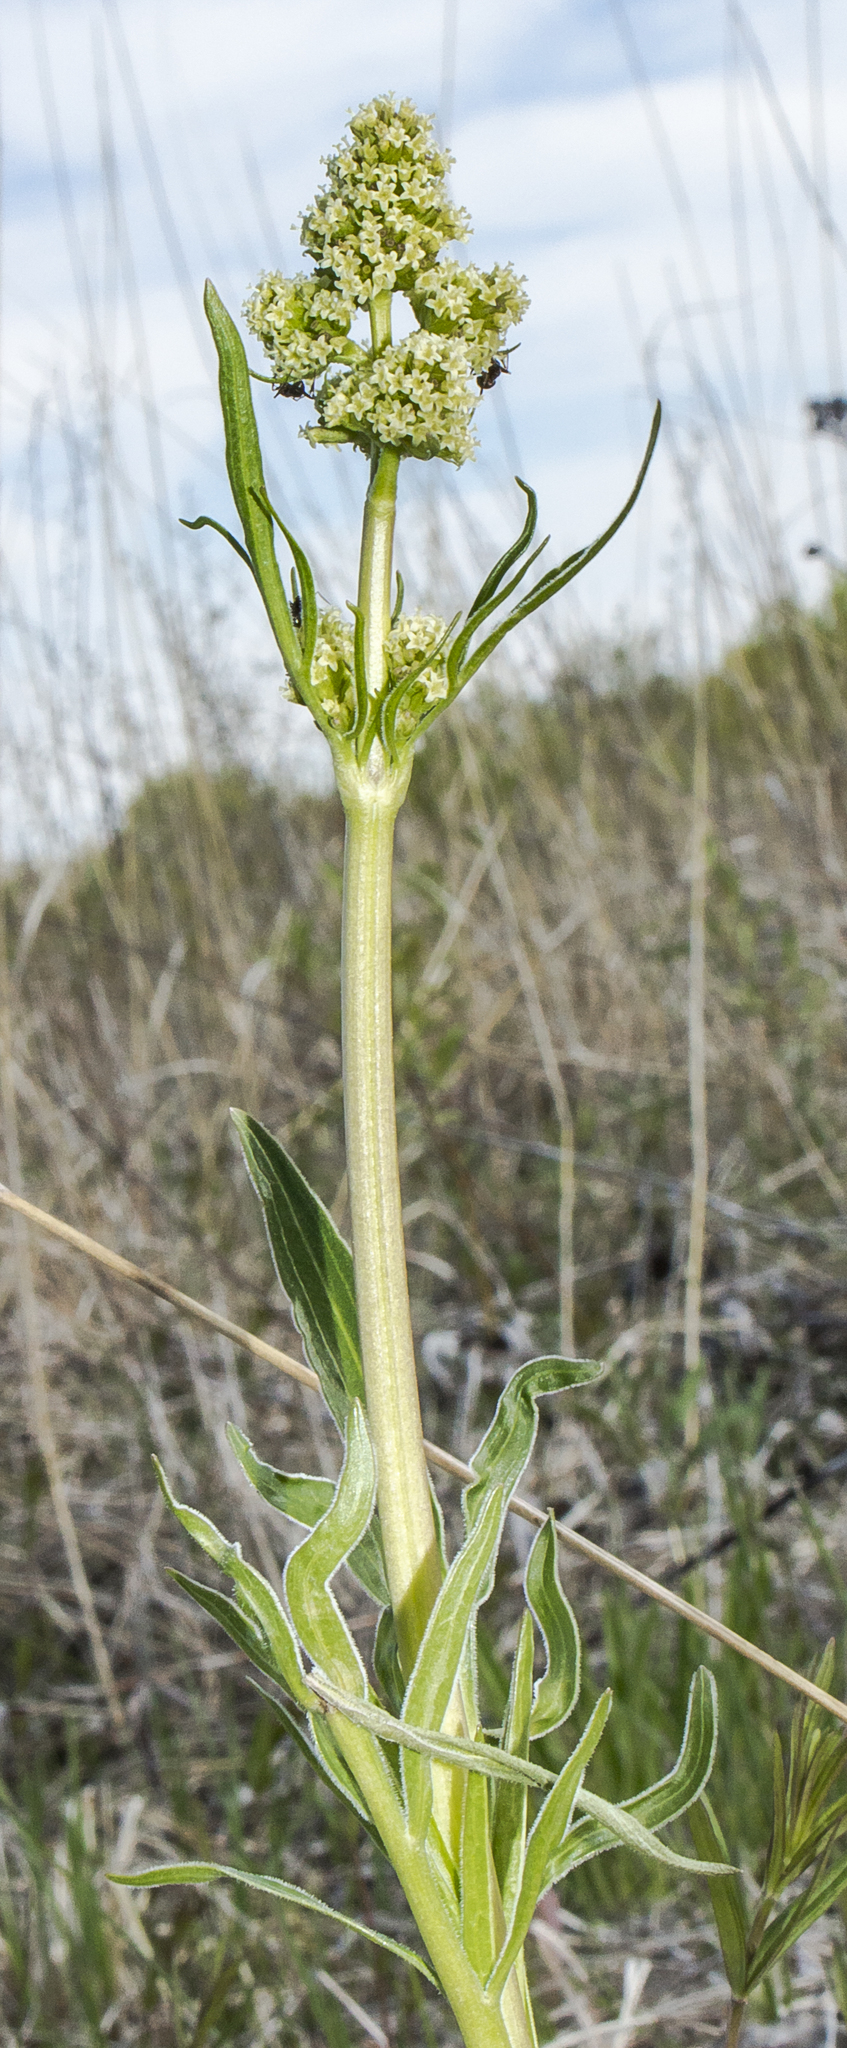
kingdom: Plantae
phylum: Tracheophyta
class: Magnoliopsida
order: Dipsacales
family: Caprifoliaceae
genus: Valeriana
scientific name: Valeriana edulis
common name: Taproot valerian
